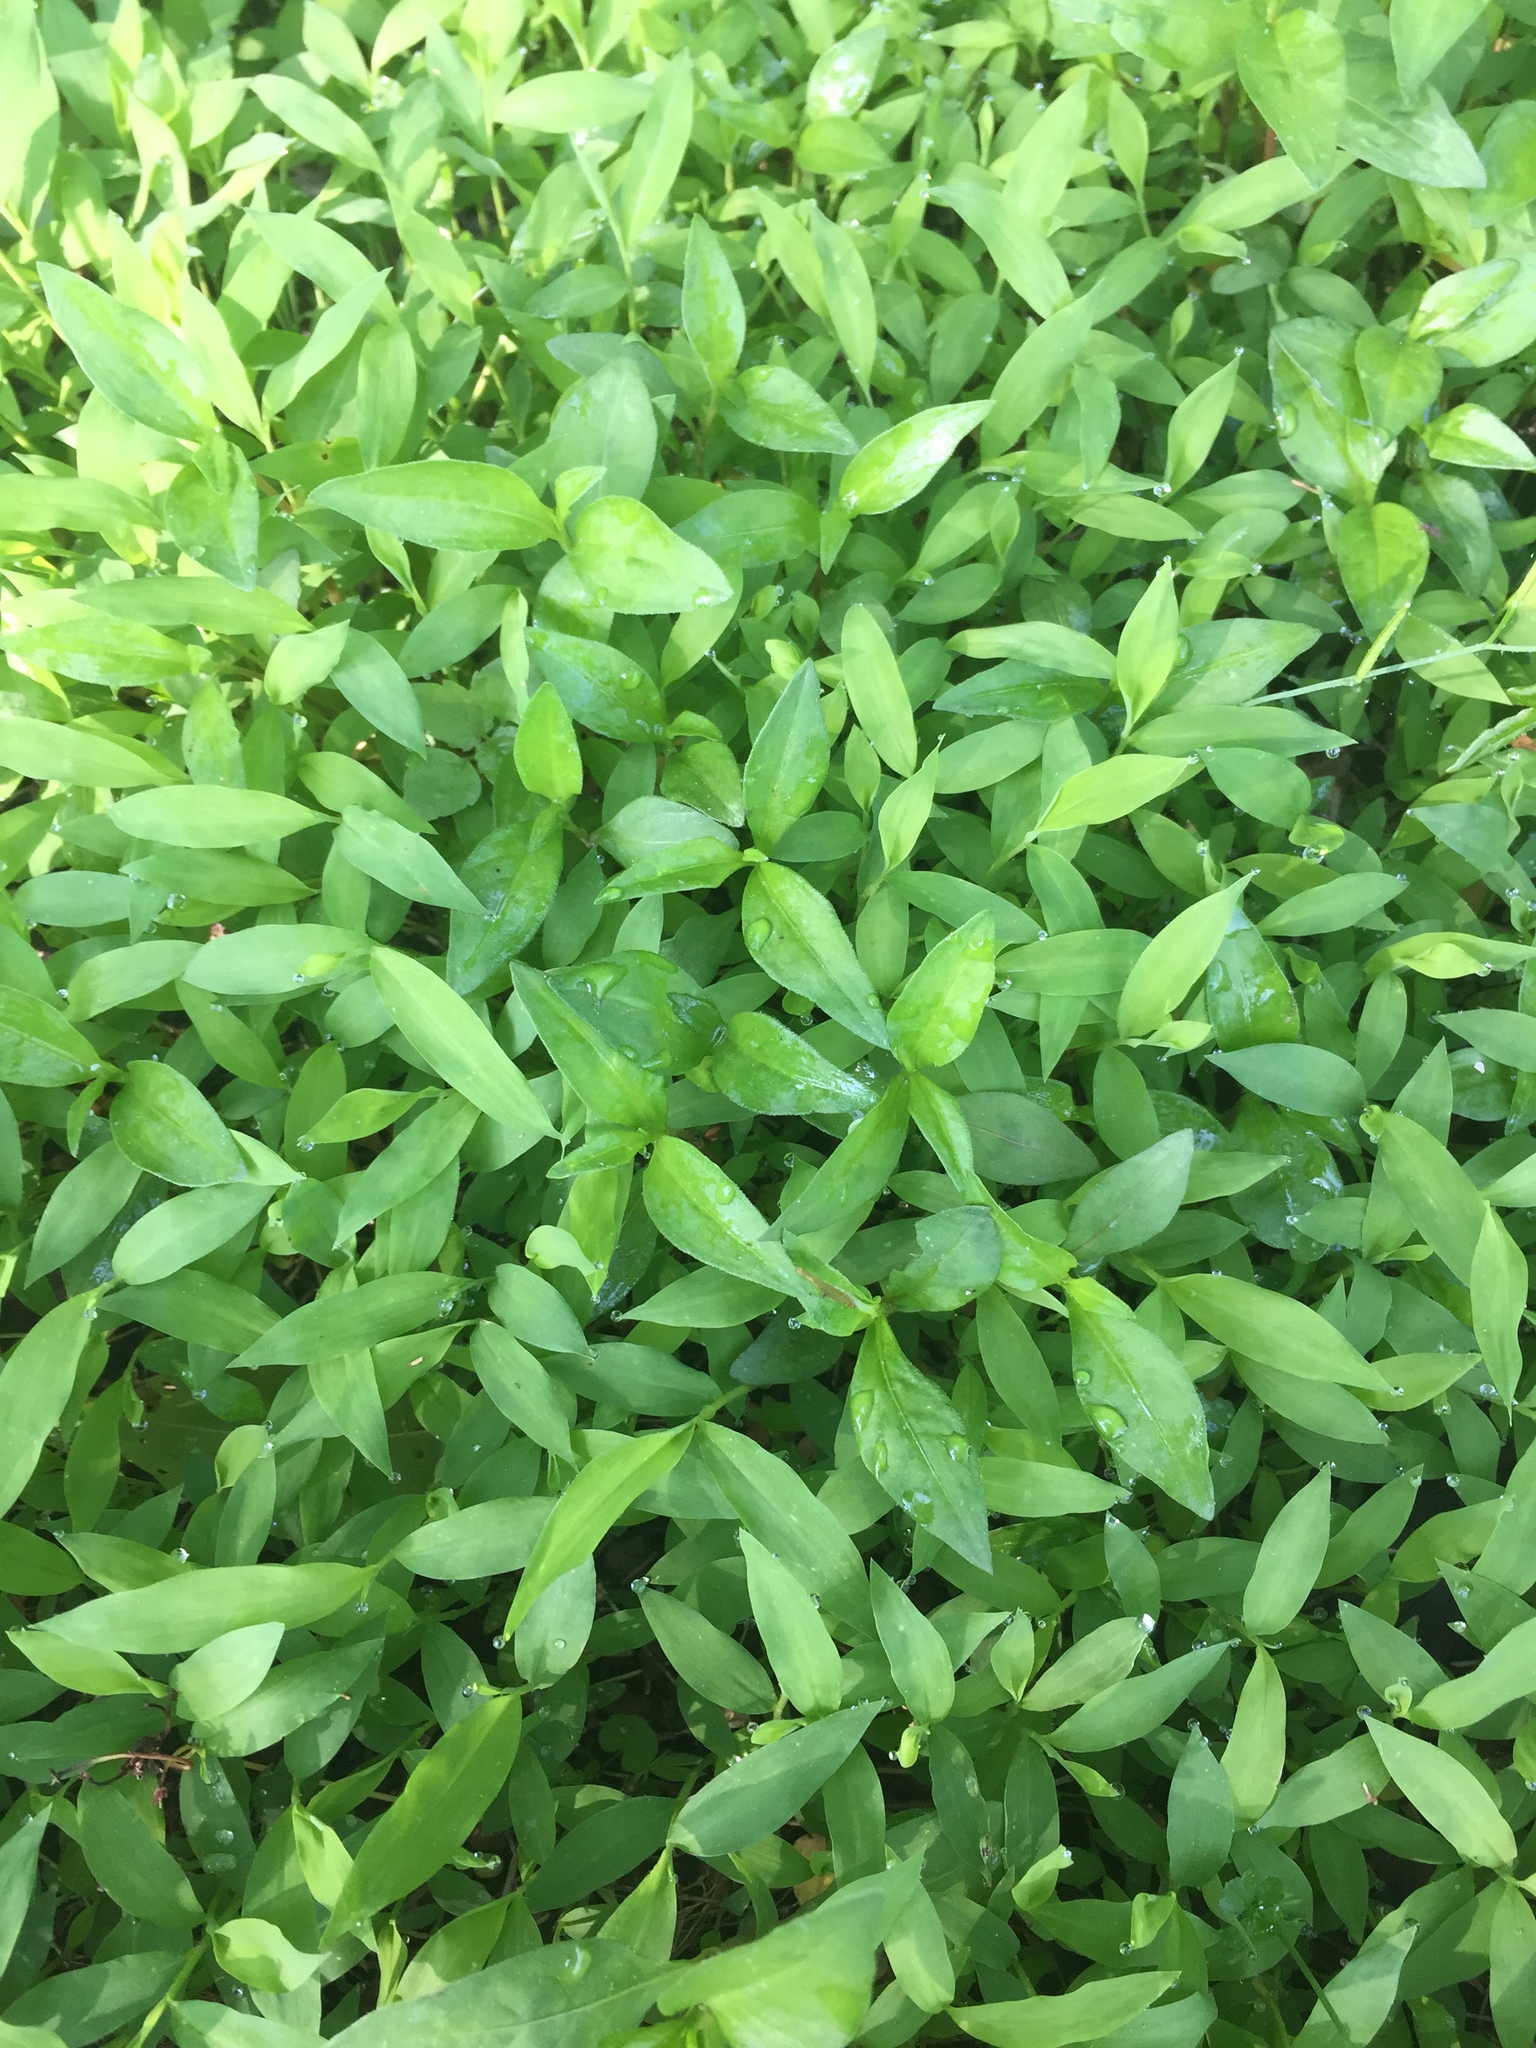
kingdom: Plantae
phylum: Tracheophyta
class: Liliopsida
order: Poales
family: Poaceae
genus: Microstegium
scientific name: Microstegium vimineum
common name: Japanese stiltgrass
